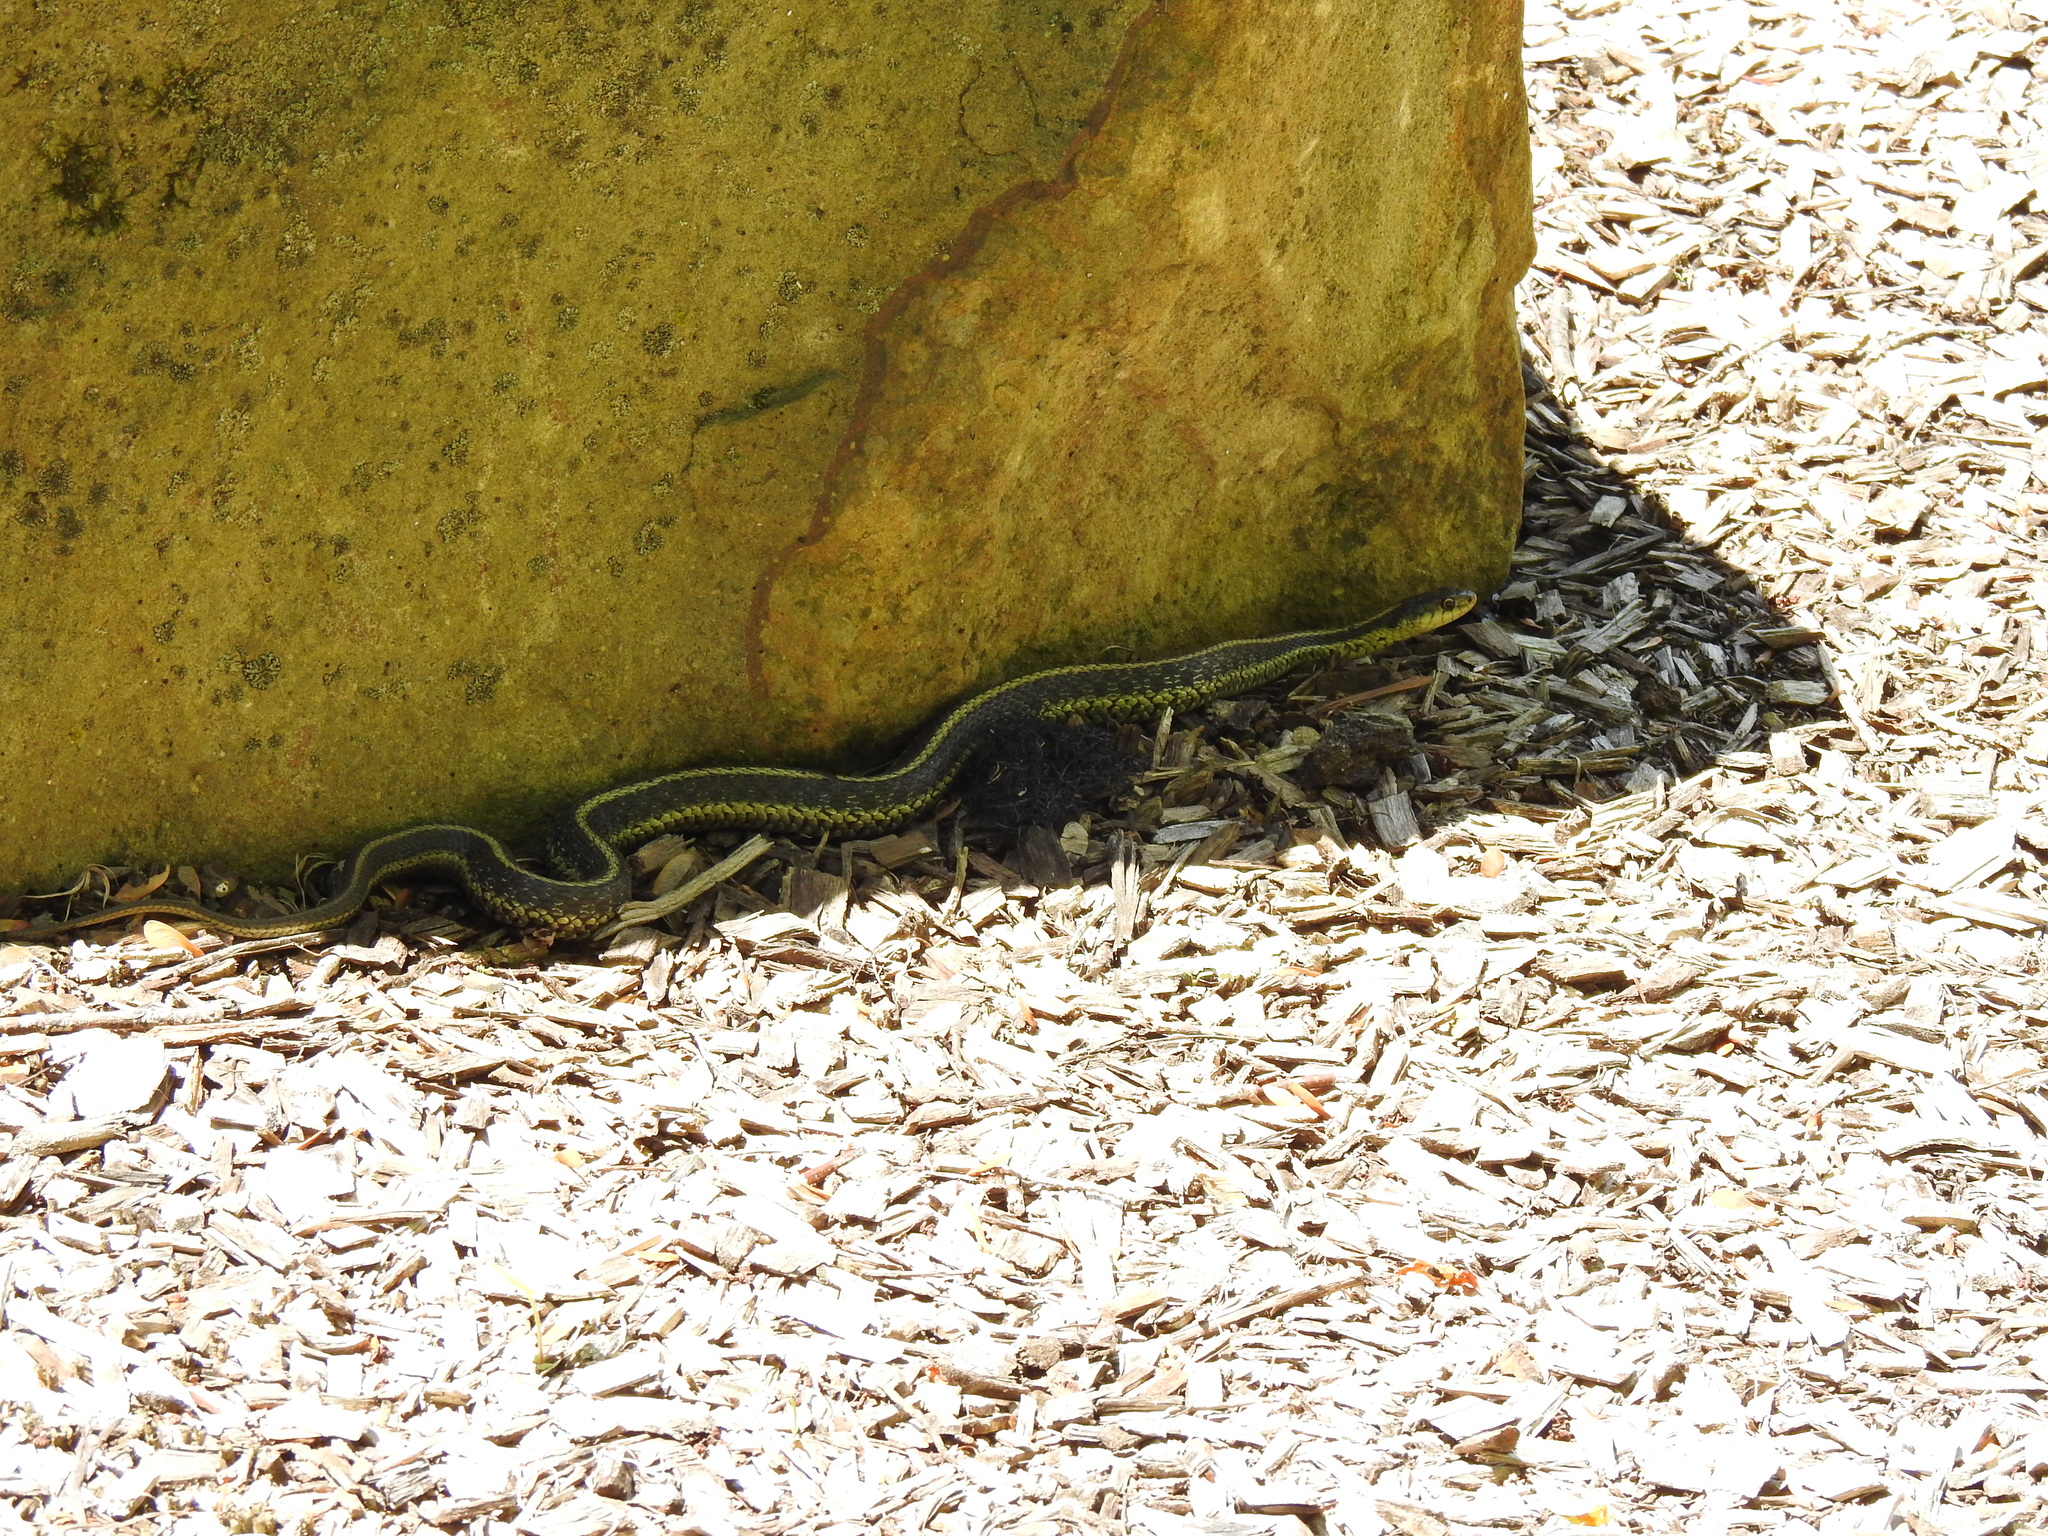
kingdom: Animalia
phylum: Chordata
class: Squamata
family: Colubridae
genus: Thamnophis
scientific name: Thamnophis sirtalis
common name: Common garter snake
